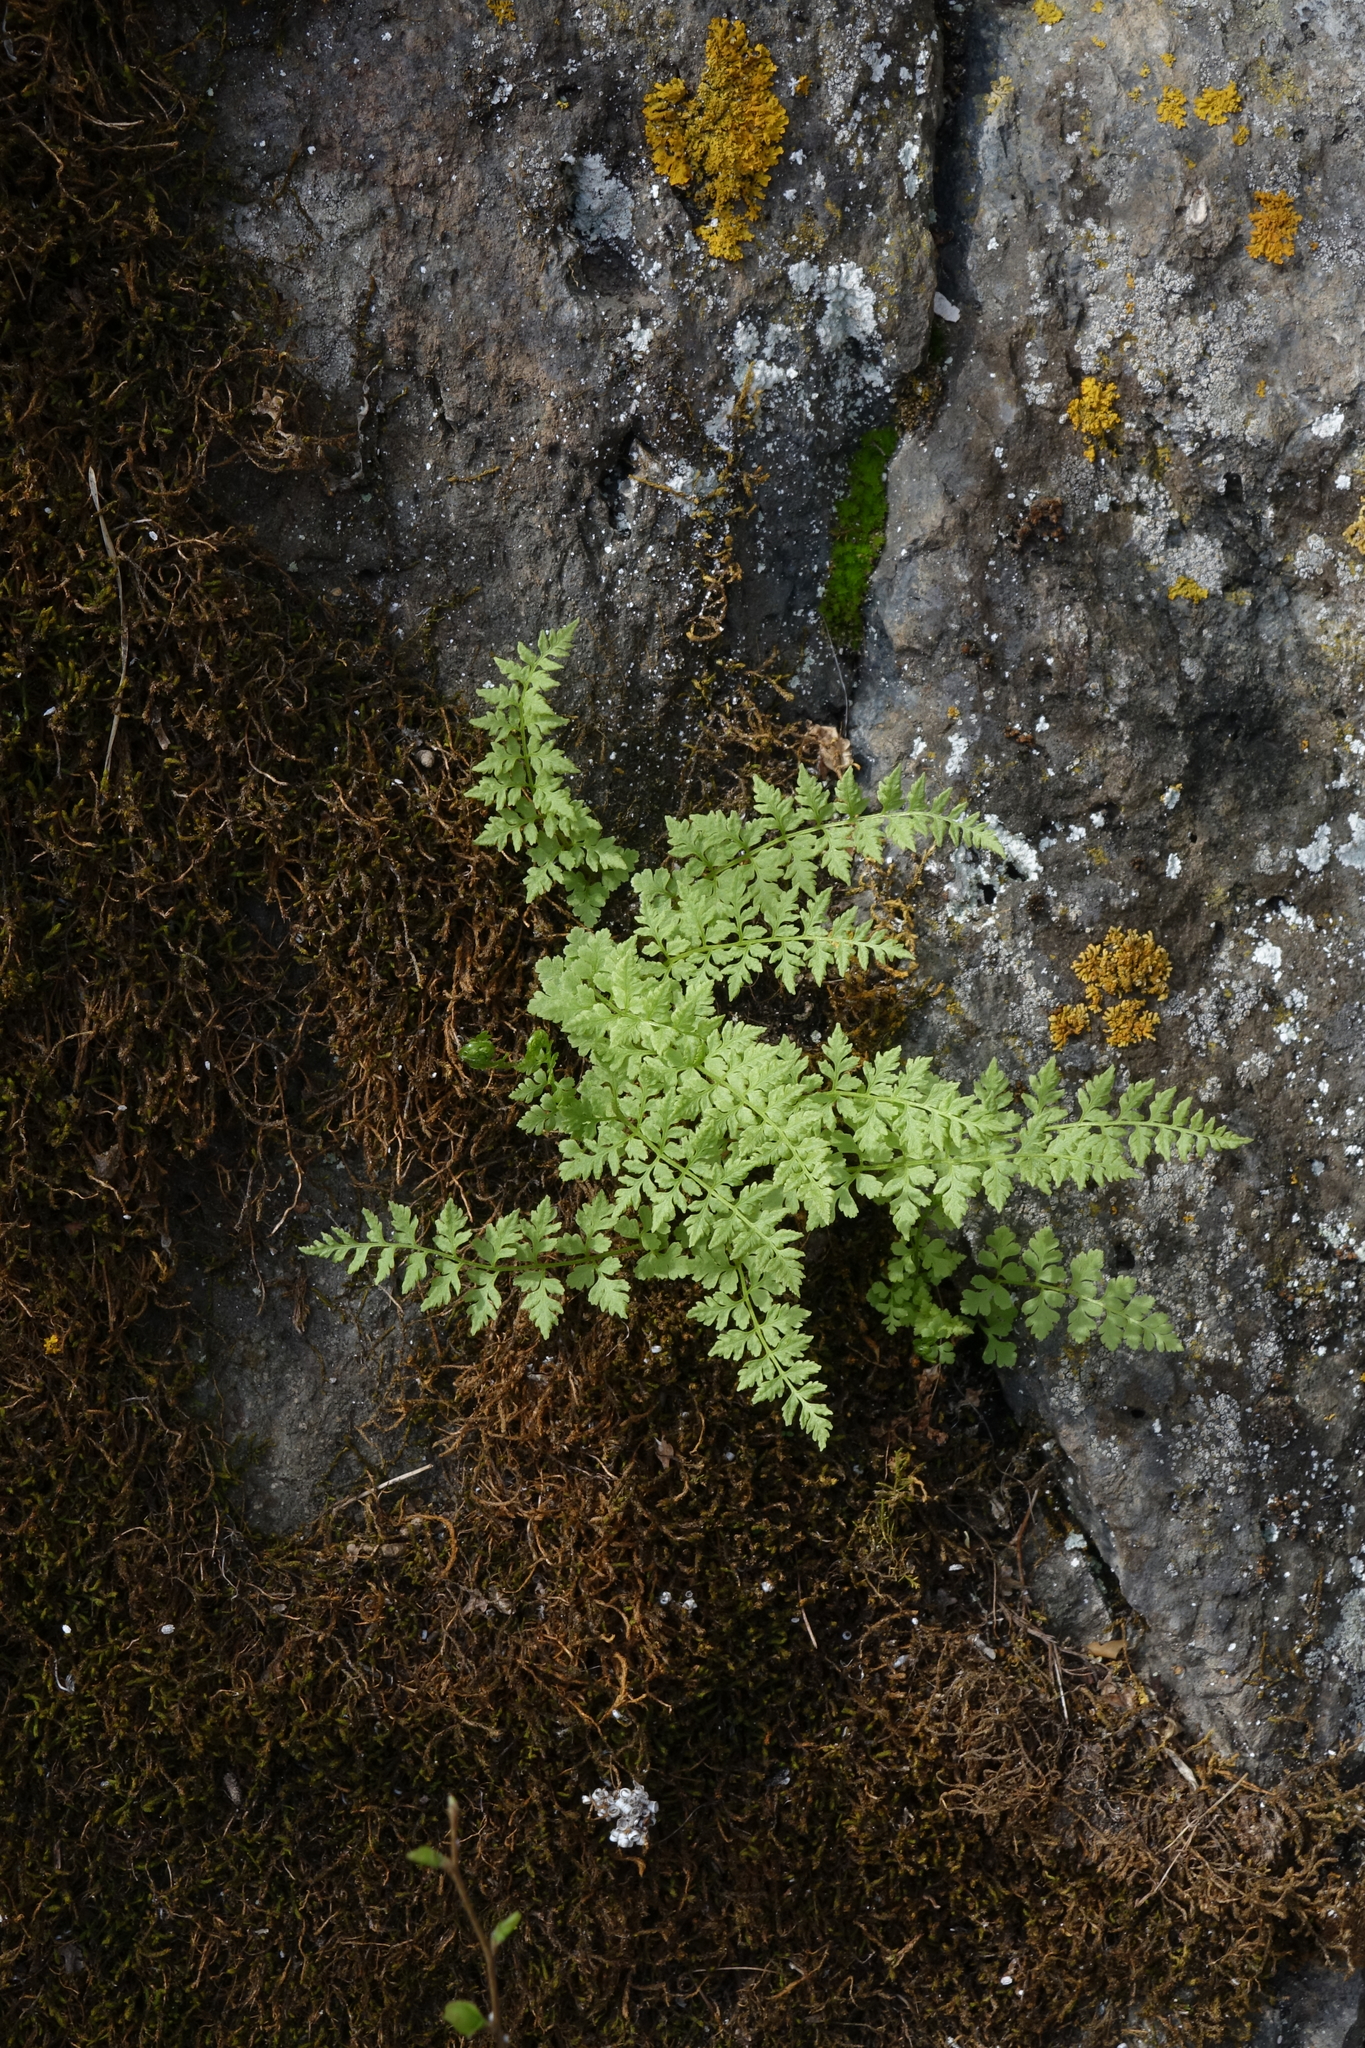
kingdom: Plantae
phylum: Tracheophyta
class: Polypodiopsida
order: Polypodiales
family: Cystopteridaceae
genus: Cystopteris
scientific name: Cystopteris fragilis
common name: Brittle bladder fern
